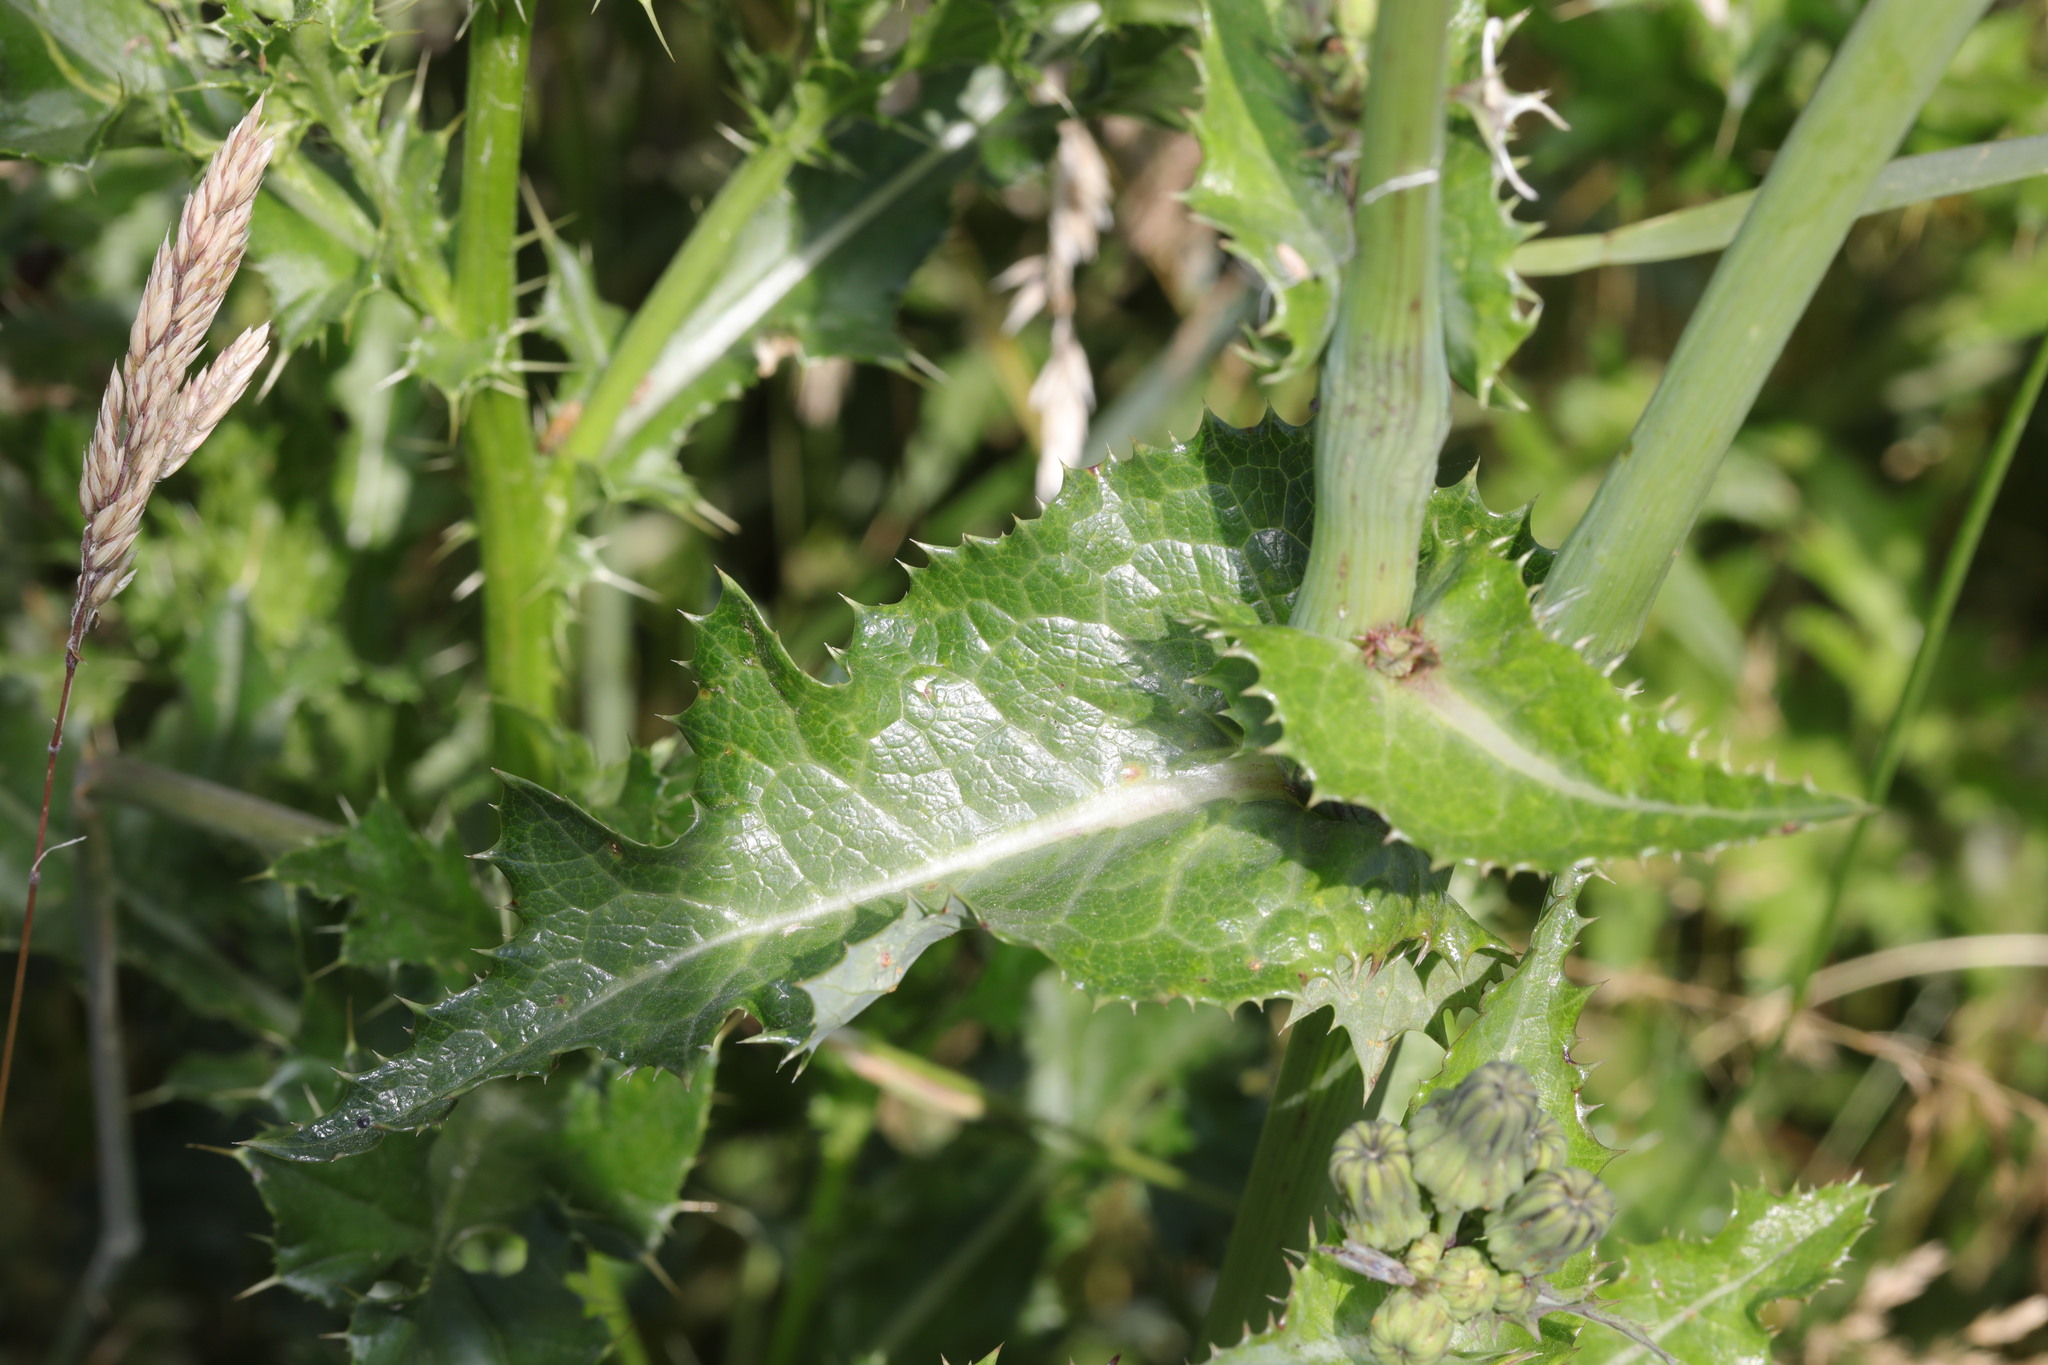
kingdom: Plantae
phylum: Tracheophyta
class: Magnoliopsida
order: Asterales
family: Asteraceae
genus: Sonchus
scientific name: Sonchus asper
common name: Prickly sow-thistle
